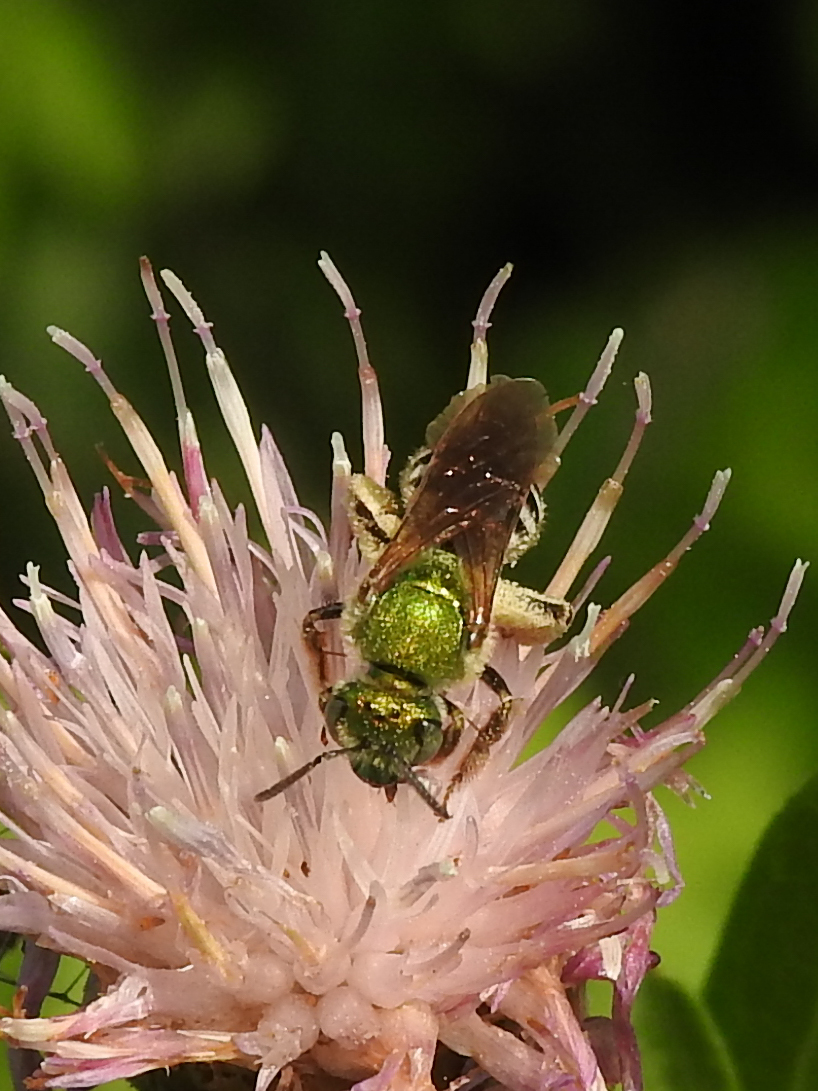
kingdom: Animalia
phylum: Arthropoda
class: Insecta
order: Hymenoptera
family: Halictidae
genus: Agapostemon
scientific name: Agapostemon virescens
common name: Bicolored striped sweat bee
